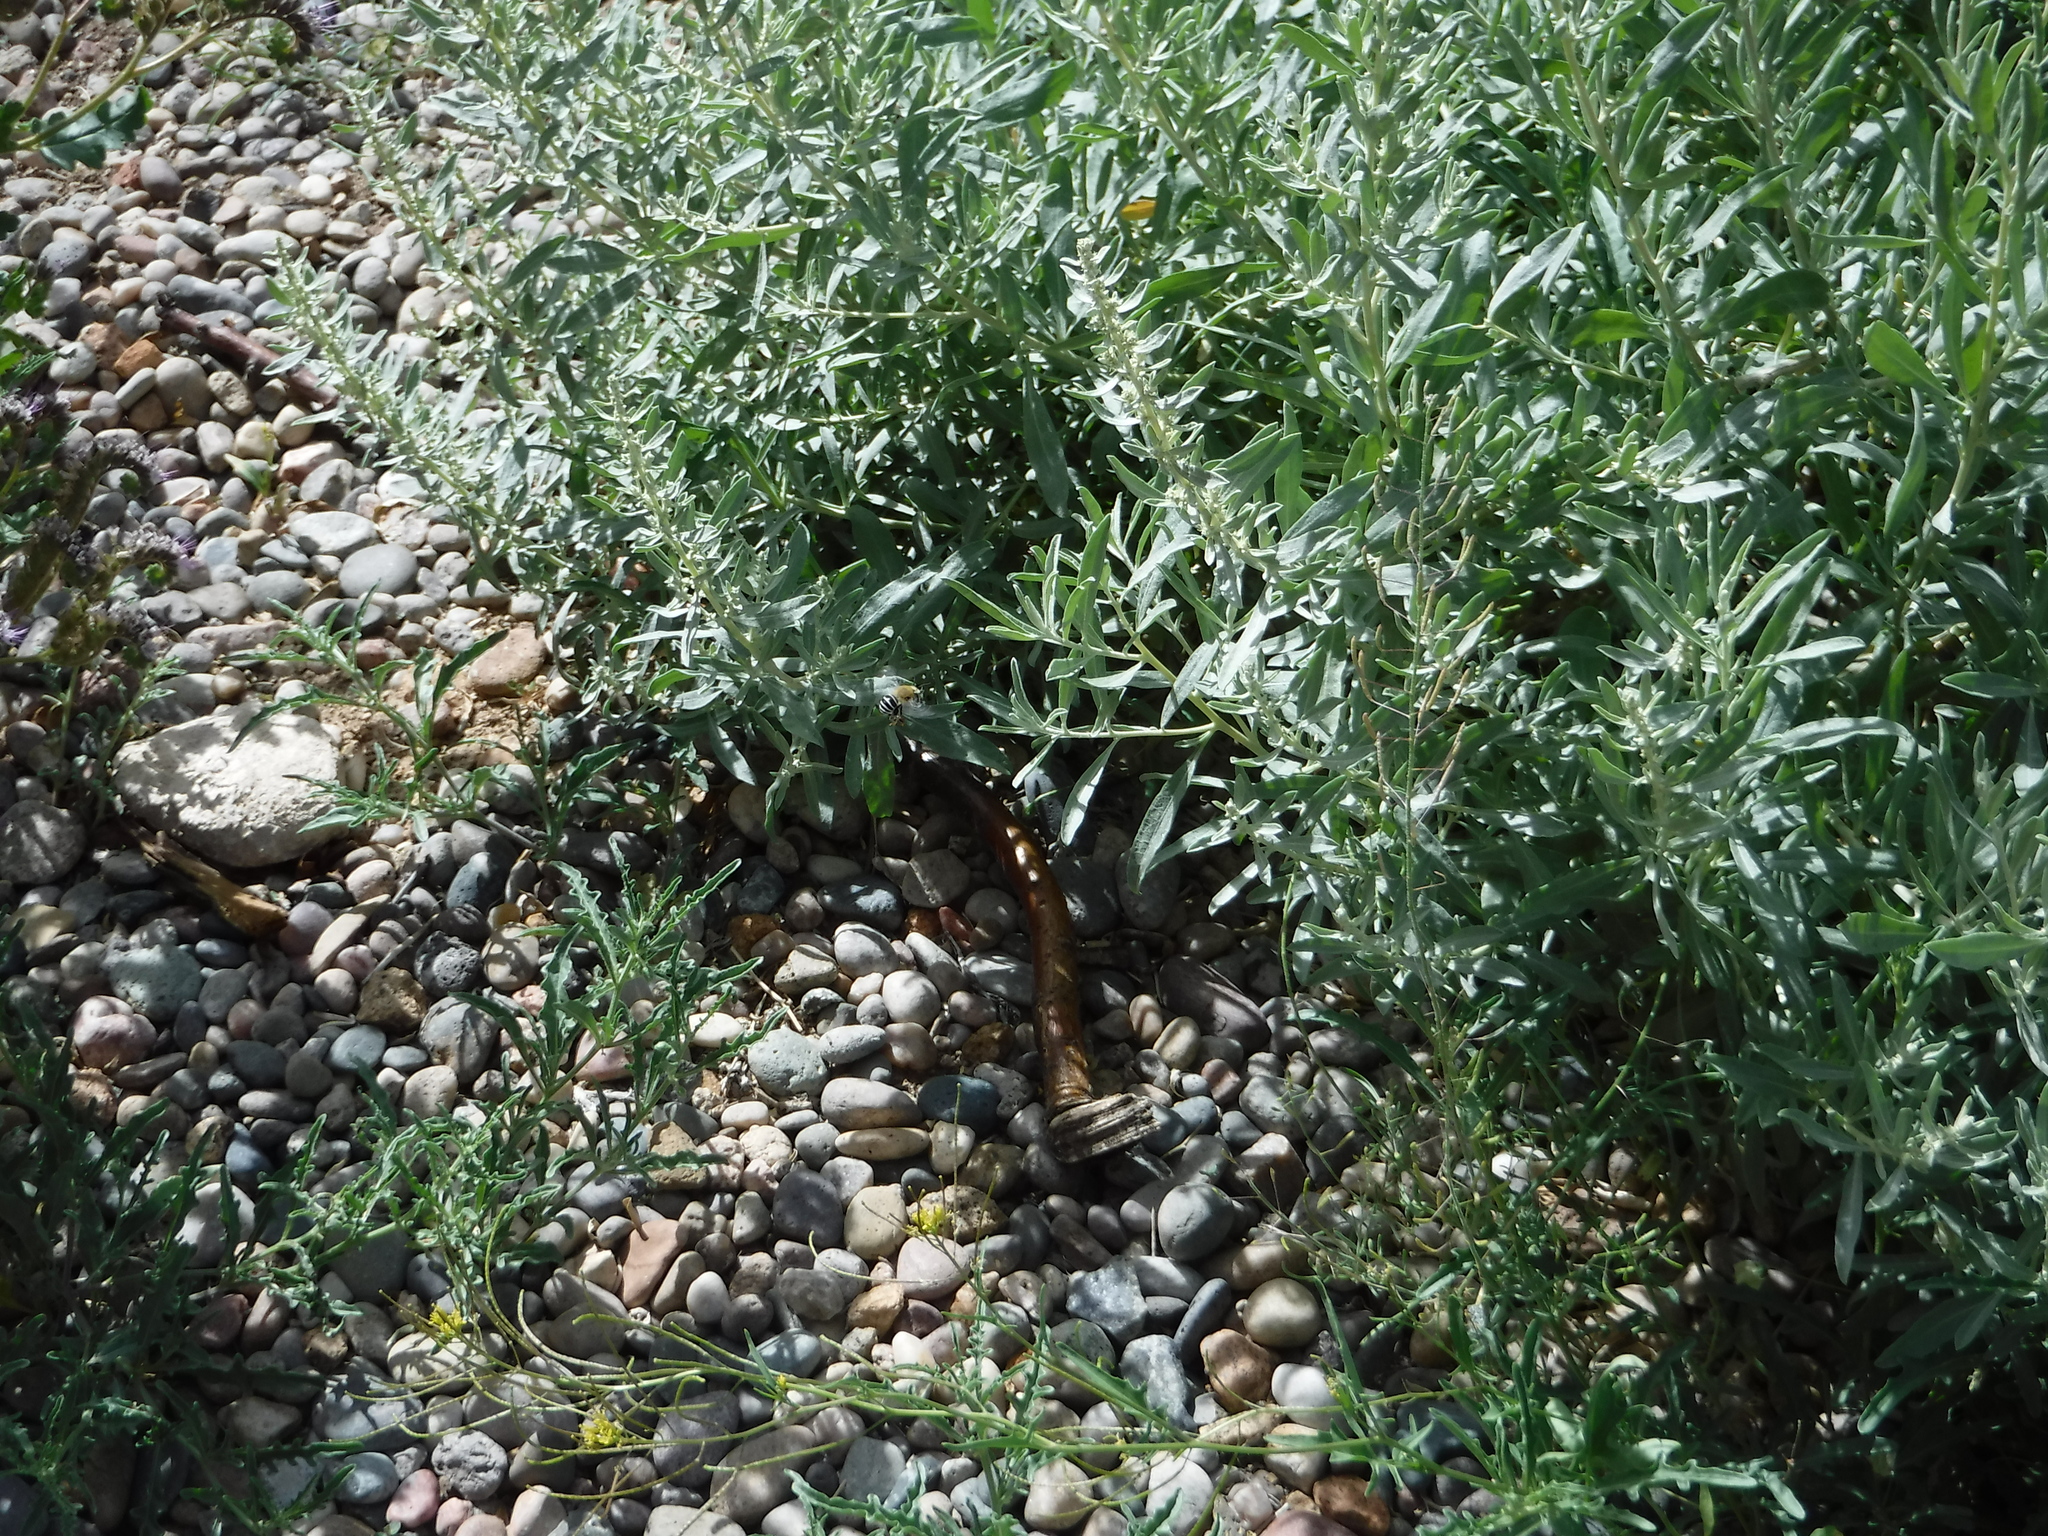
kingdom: Animalia
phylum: Arthropoda
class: Insecta
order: Hymenoptera
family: Apidae
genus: Anthophora
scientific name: Anthophora californica
